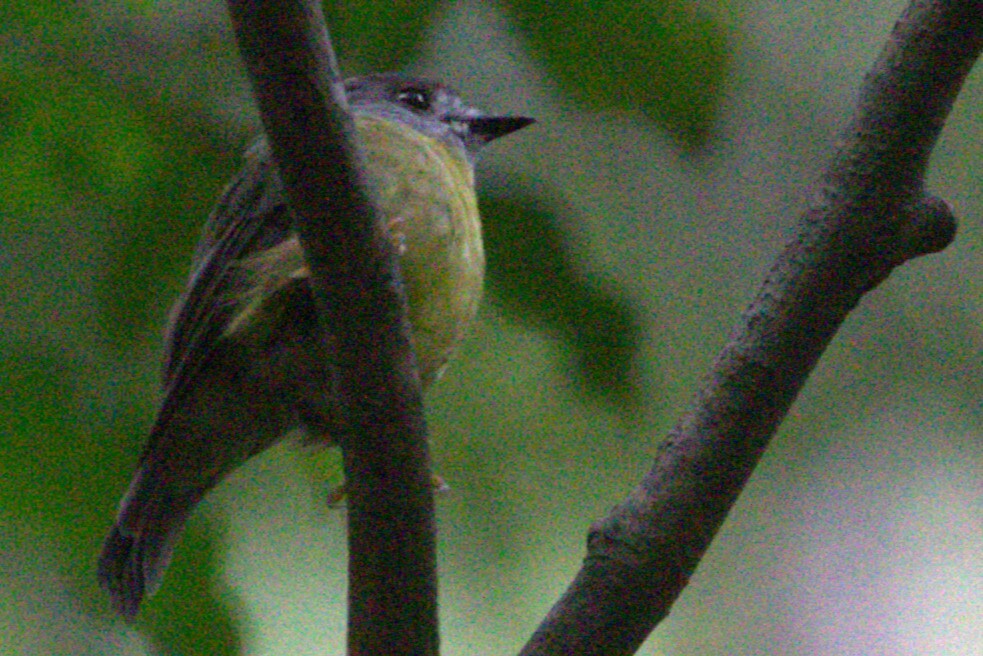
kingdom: Animalia
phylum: Chordata
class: Aves
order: Passeriformes
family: Petroicidae
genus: Eopsaltria
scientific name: Eopsaltria
